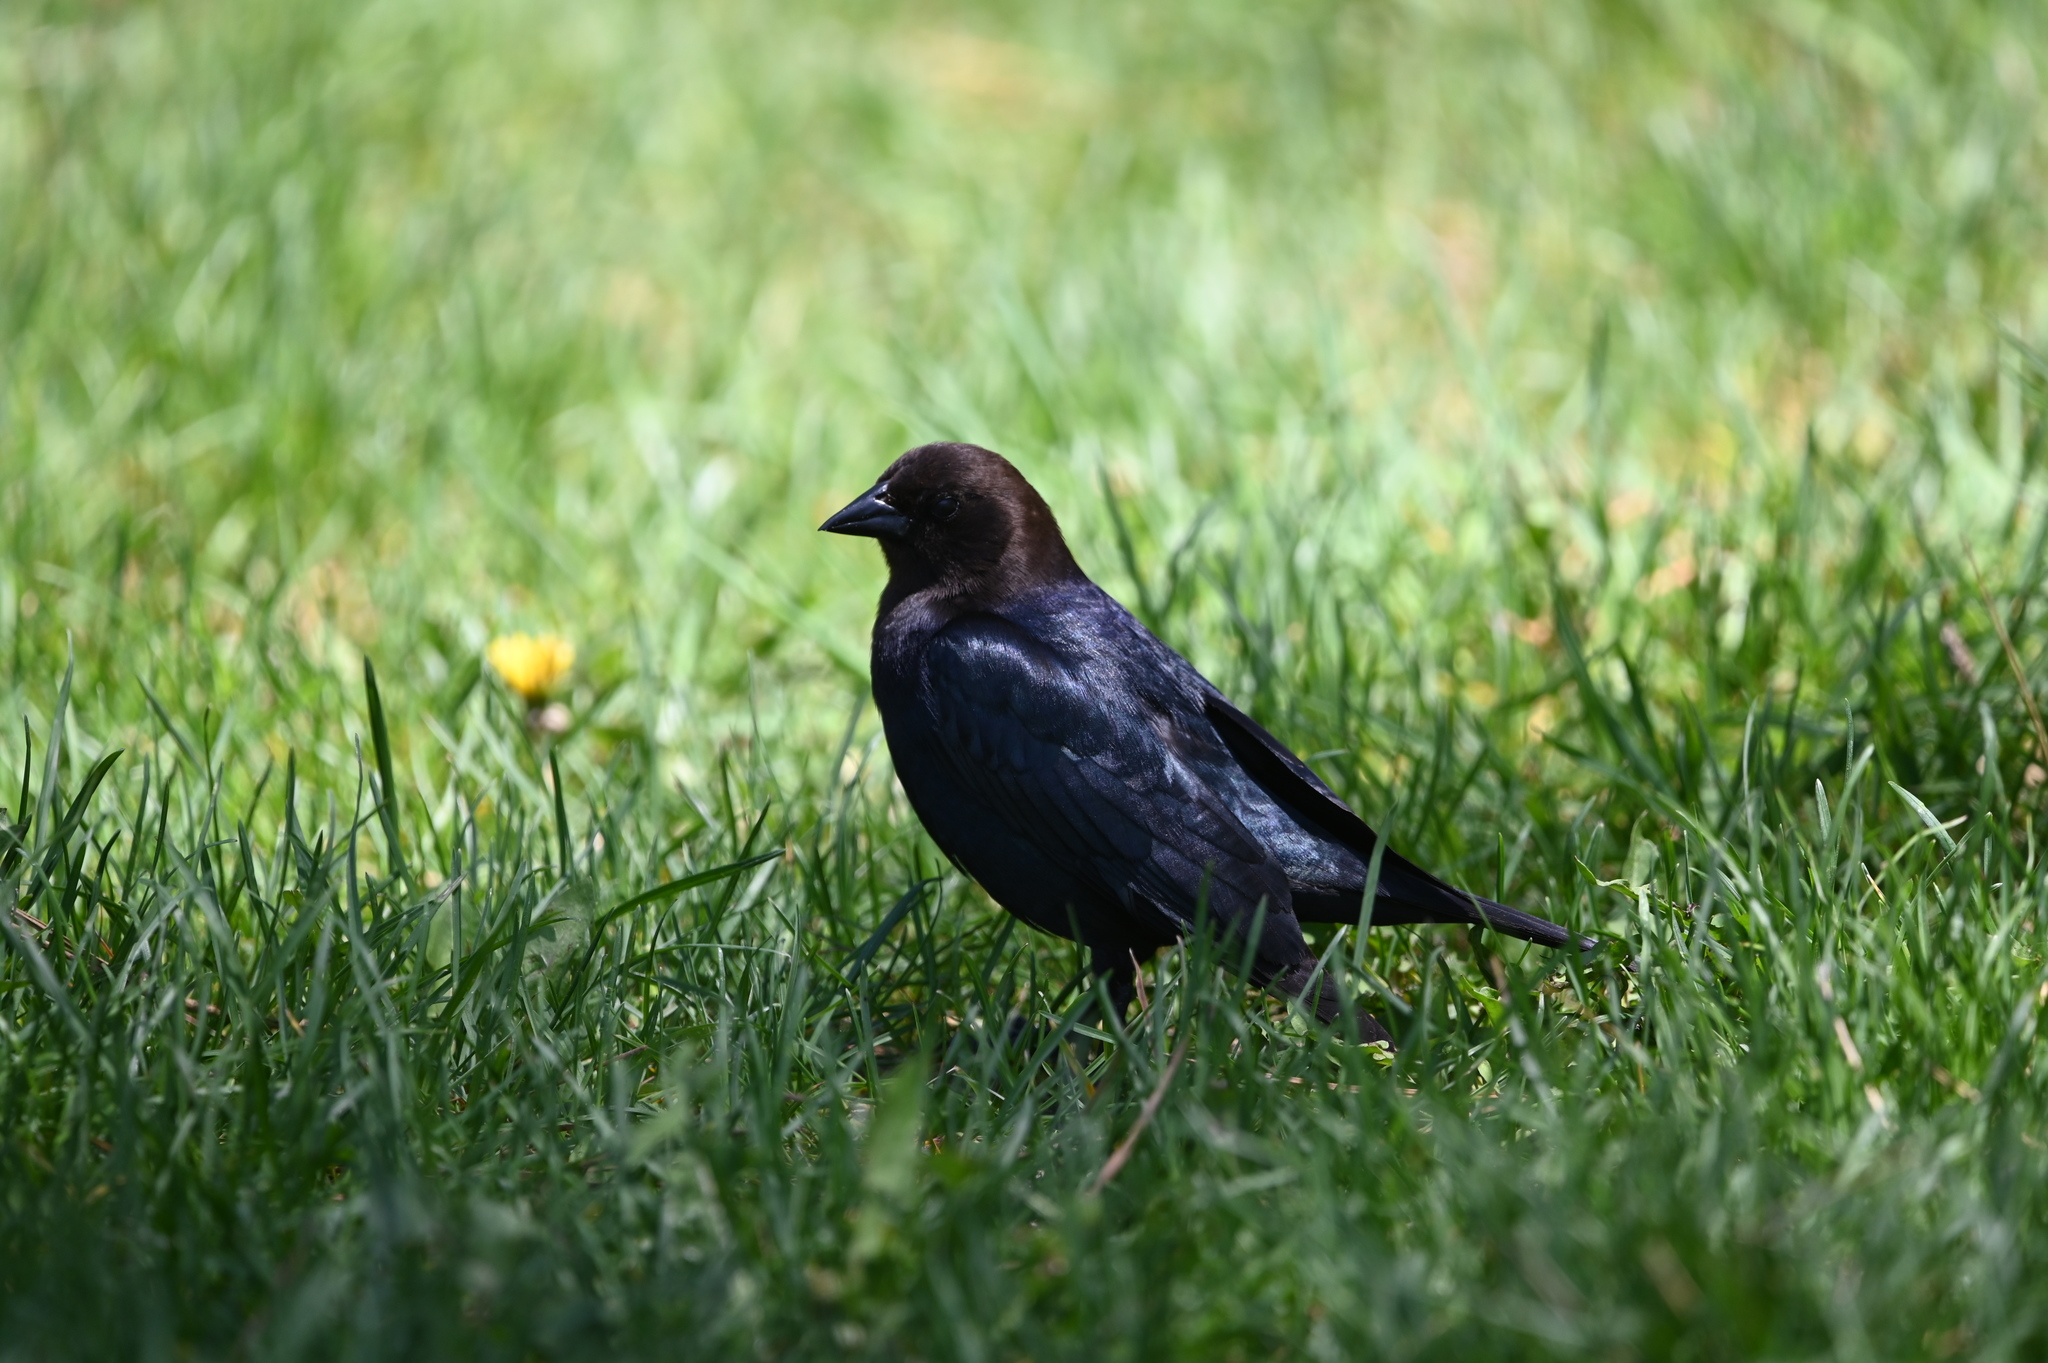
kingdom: Animalia
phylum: Chordata
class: Aves
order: Passeriformes
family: Icteridae
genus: Molothrus
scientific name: Molothrus ater
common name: Brown-headed cowbird
